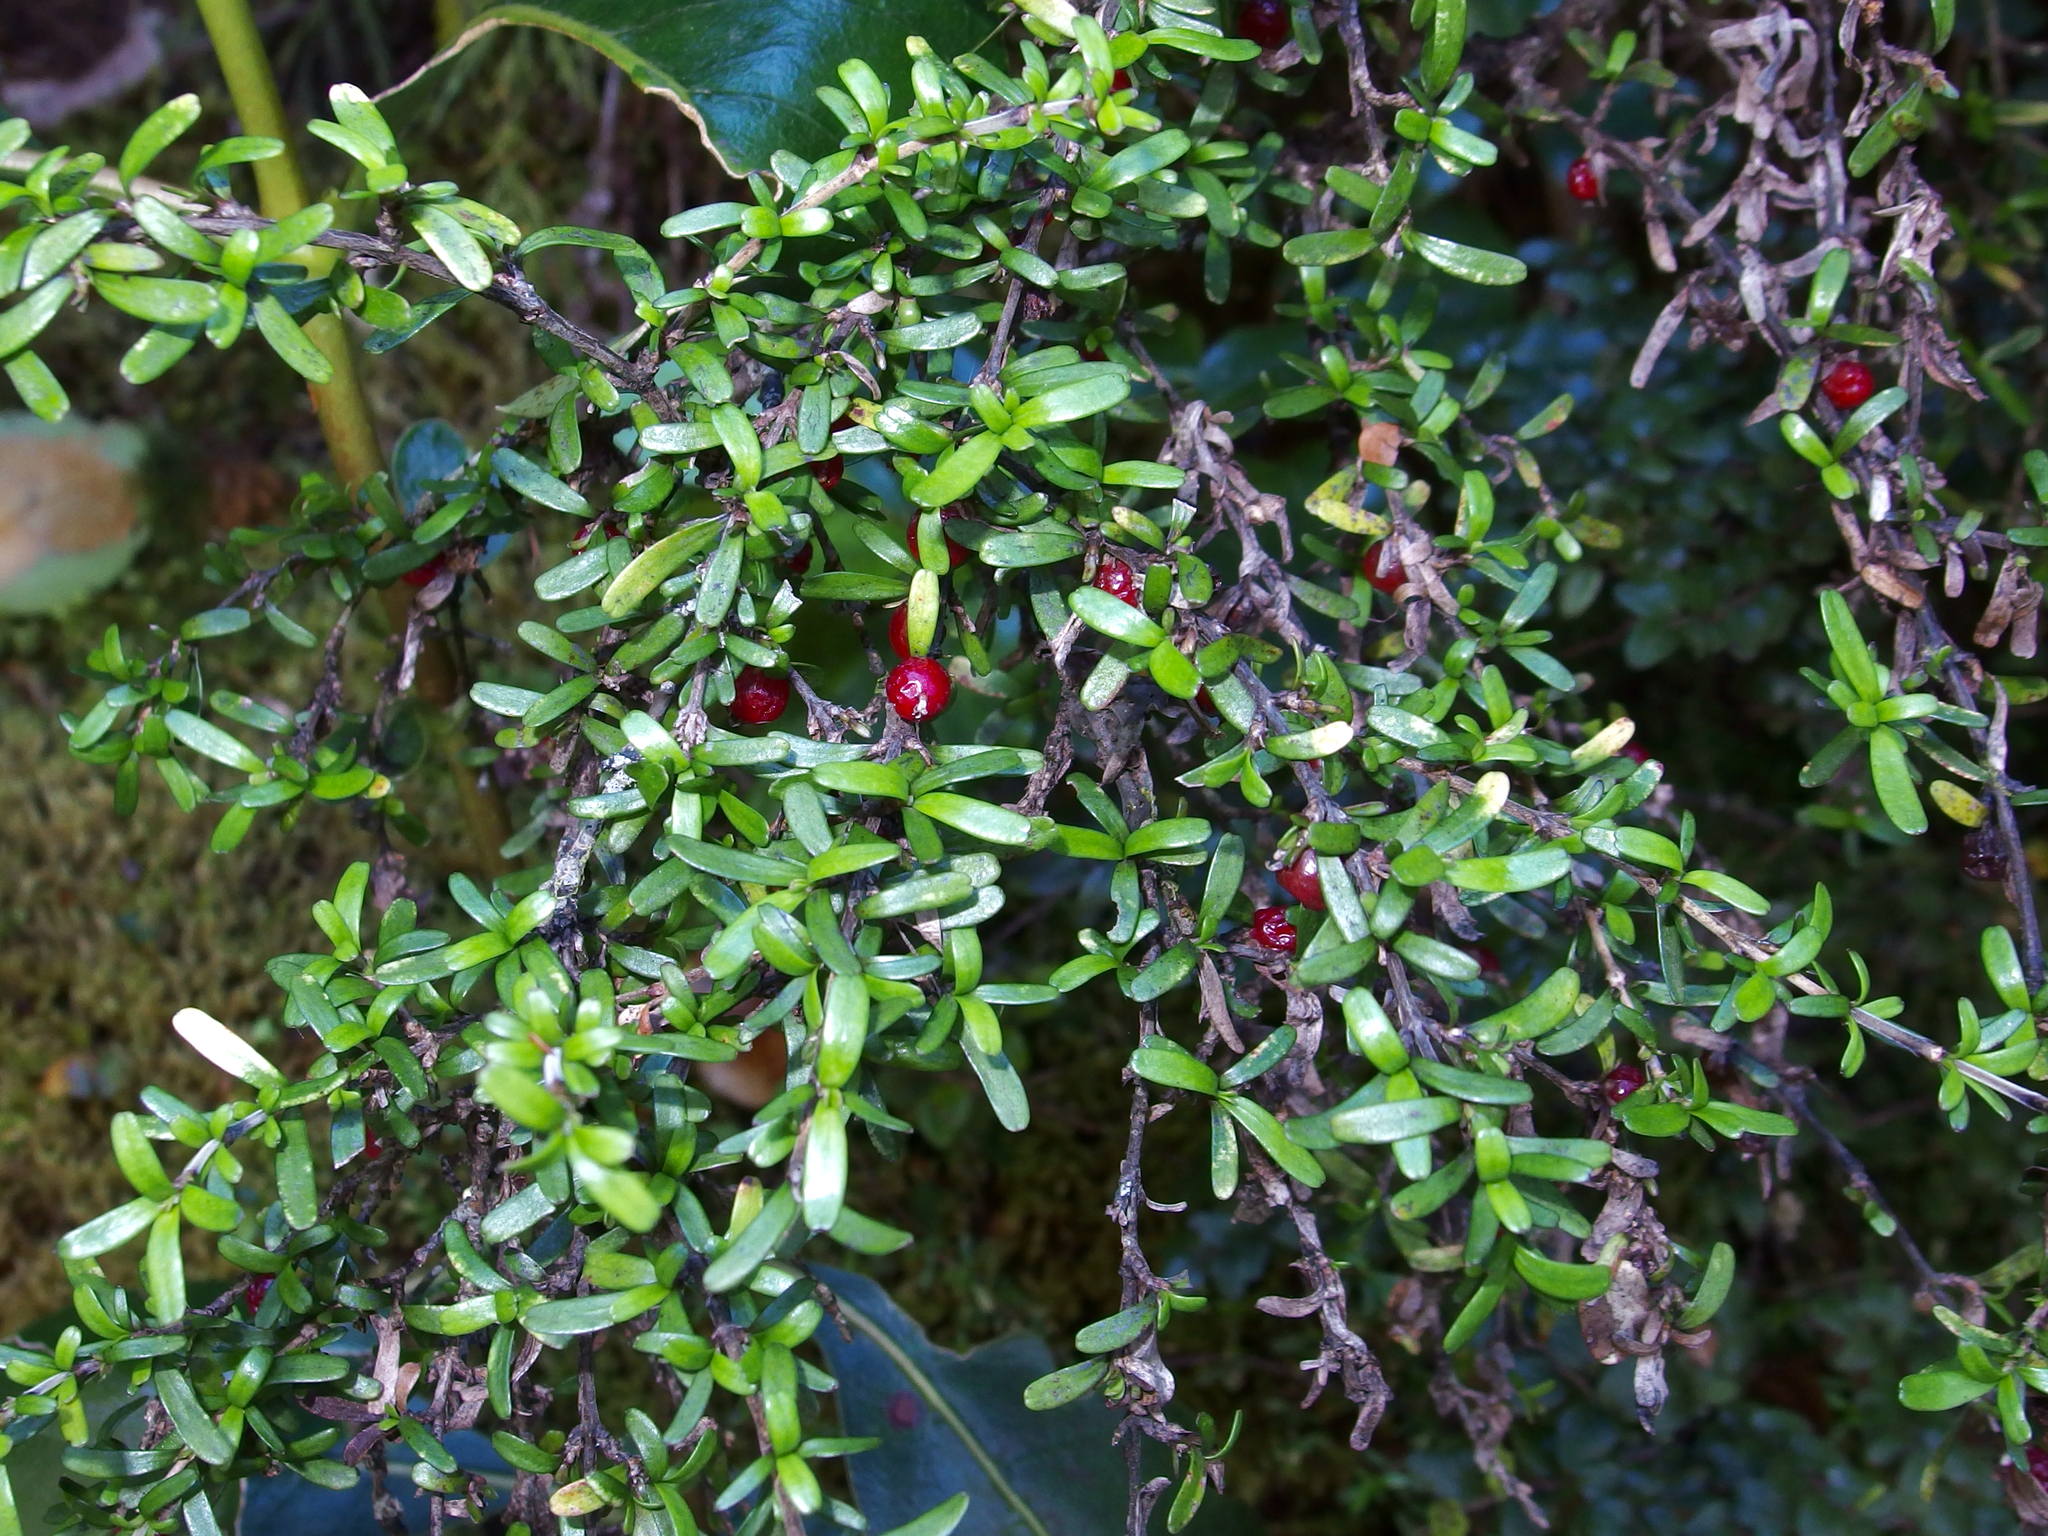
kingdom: Plantae
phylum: Tracheophyta
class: Magnoliopsida
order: Gentianales
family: Rubiaceae
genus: Coprosma
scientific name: Coprosma colensoi
